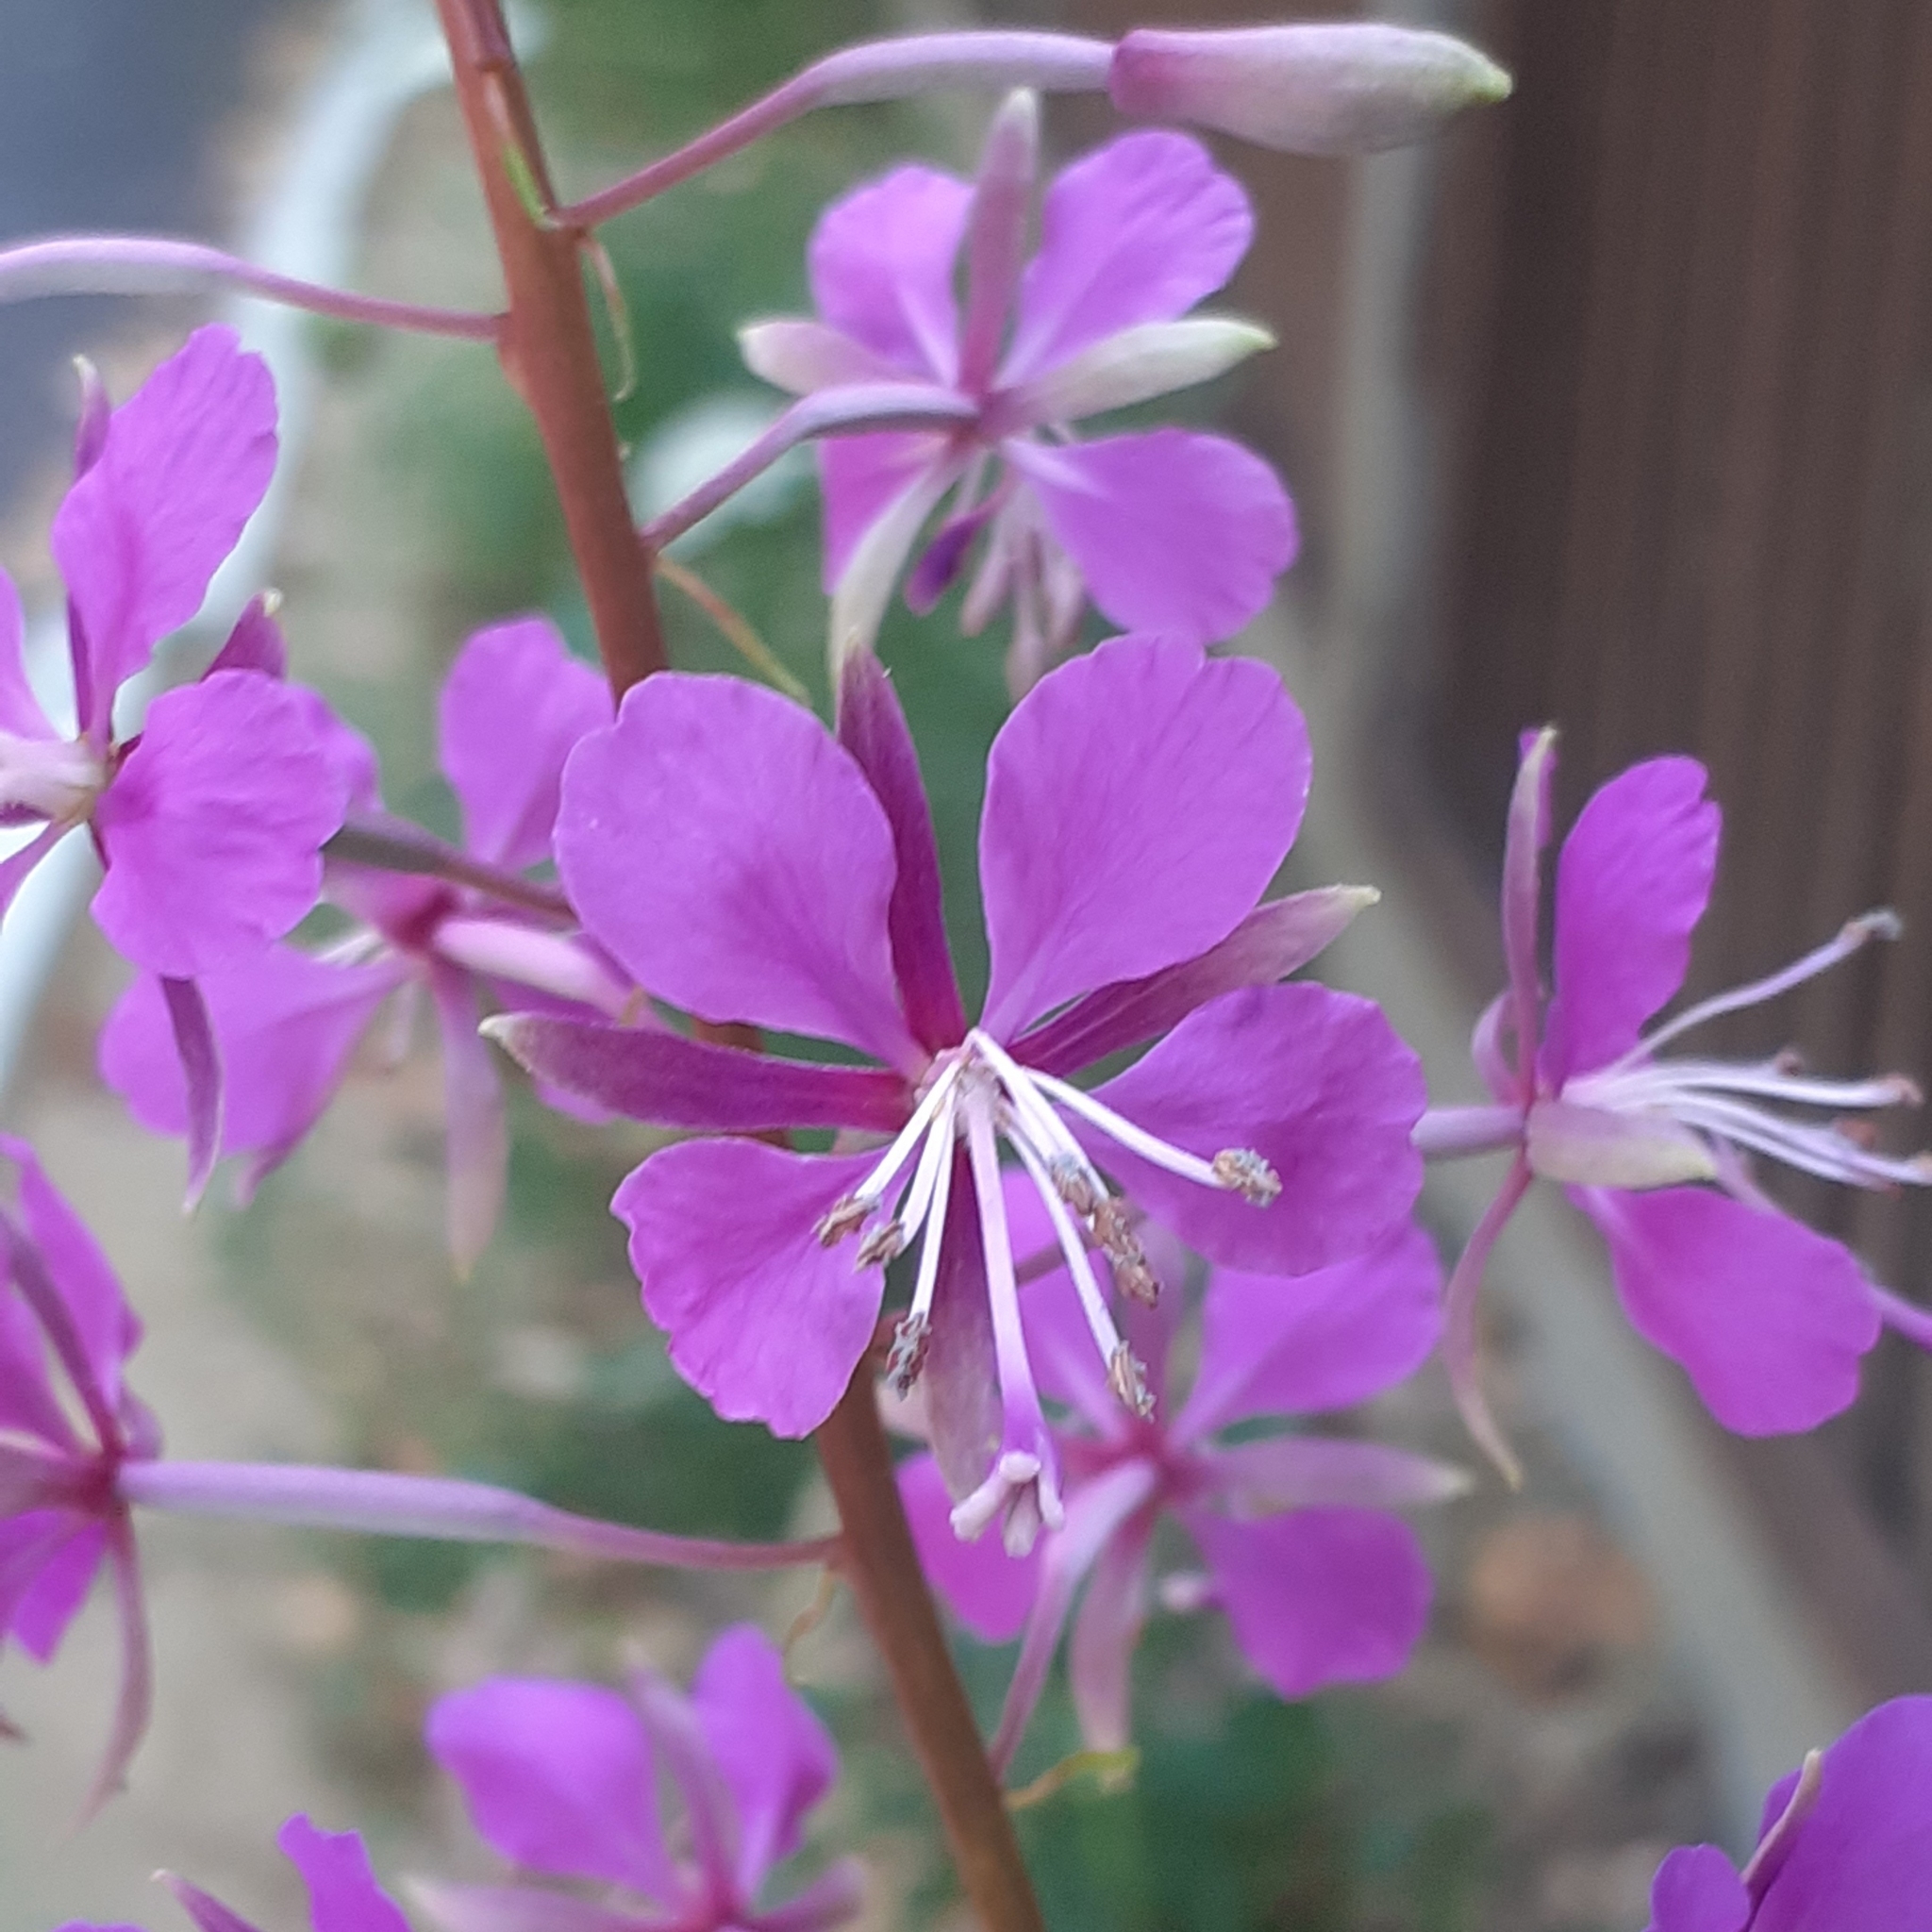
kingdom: Plantae
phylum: Tracheophyta
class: Magnoliopsida
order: Myrtales
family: Onagraceae
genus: Chamaenerion
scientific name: Chamaenerion angustifolium
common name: Fireweed
